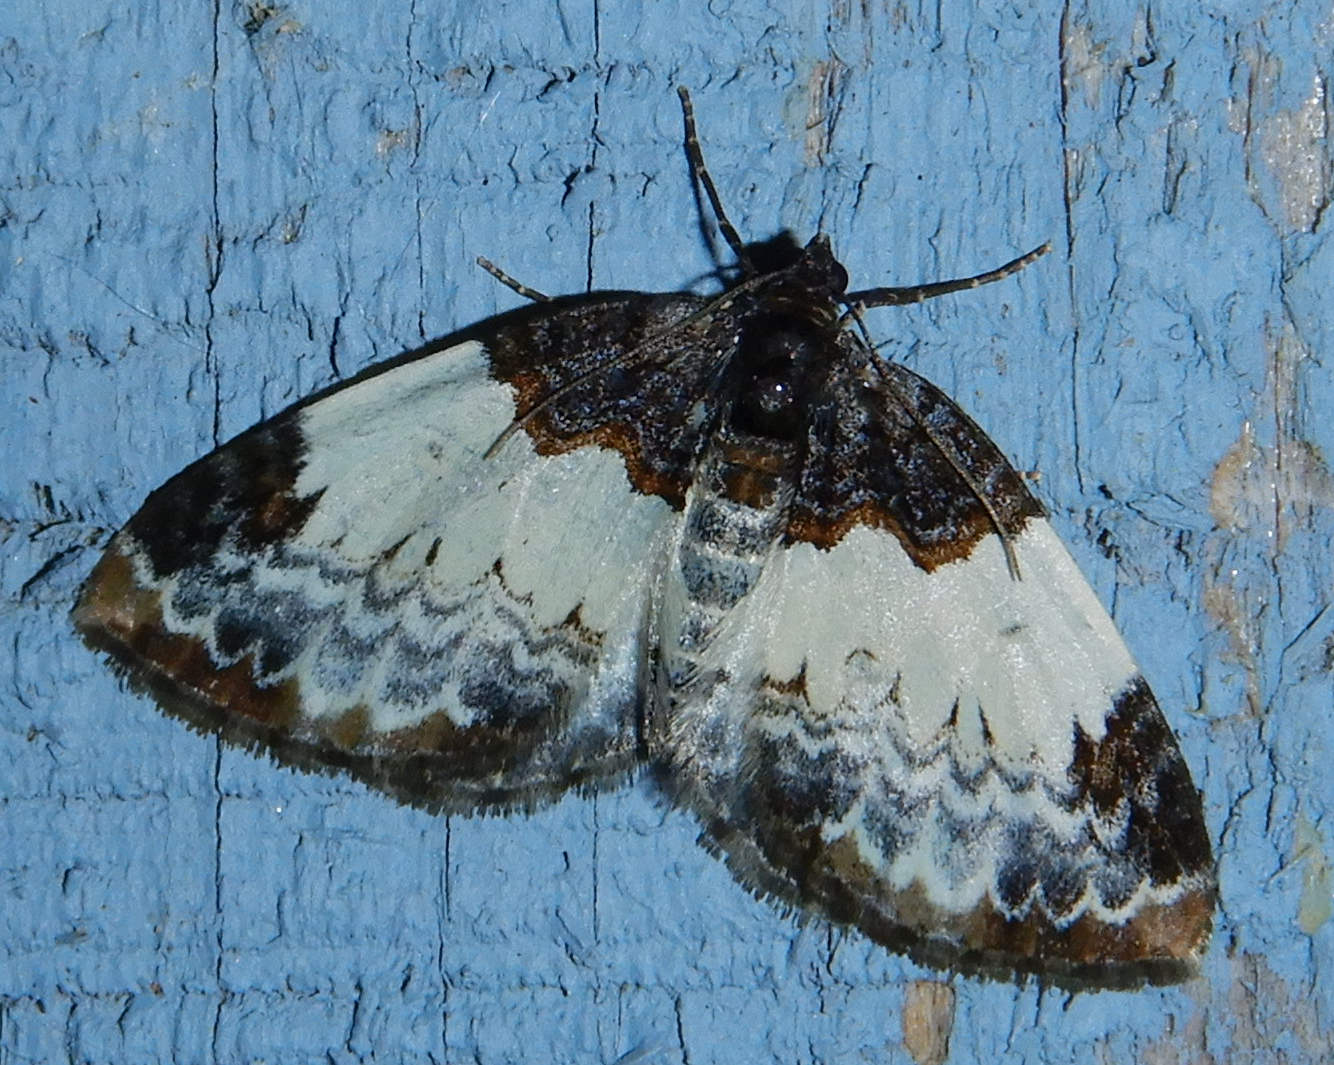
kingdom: Animalia
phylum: Arthropoda
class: Insecta
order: Lepidoptera
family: Geometridae
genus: Mesoleuca
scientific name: Mesoleuca ruficillata
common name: White-ribboned carpet moth
